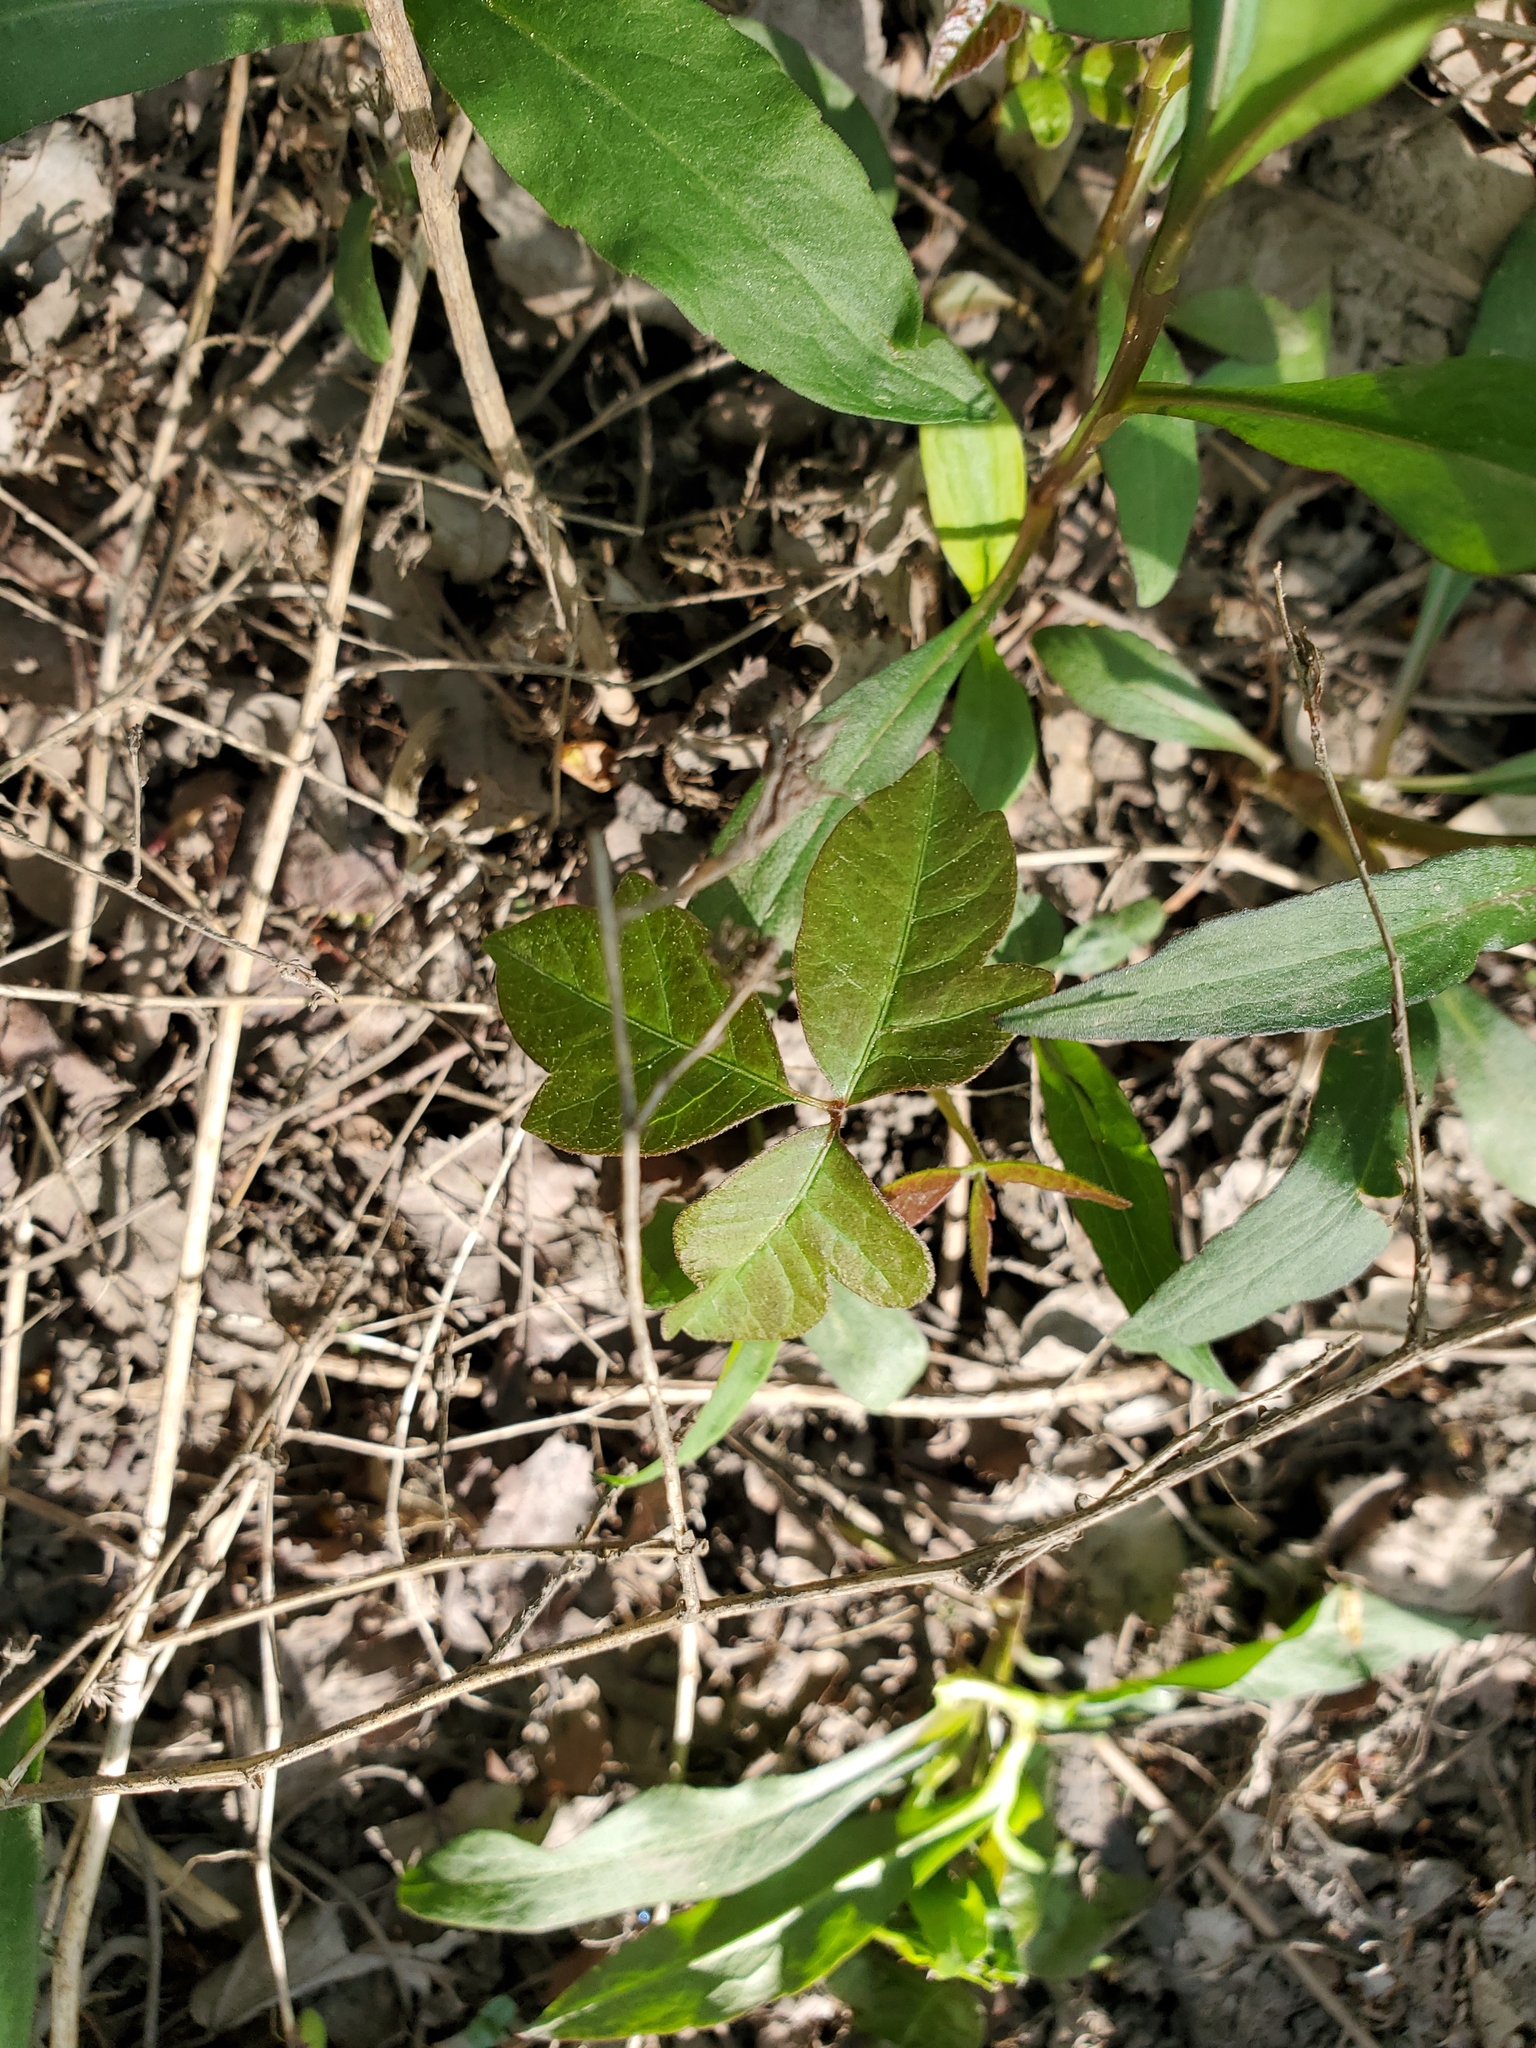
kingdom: Plantae
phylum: Tracheophyta
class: Magnoliopsida
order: Sapindales
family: Anacardiaceae
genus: Toxicodendron
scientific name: Toxicodendron radicans
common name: Poison ivy
